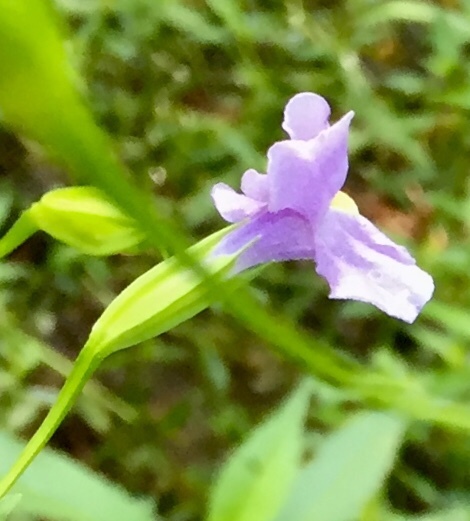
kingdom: Plantae
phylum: Tracheophyta
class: Magnoliopsida
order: Lamiales
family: Phrymaceae
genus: Mimulus
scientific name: Mimulus ringens
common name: Allegheny monkeyflower
